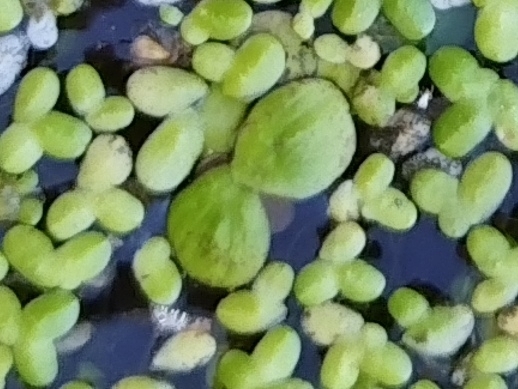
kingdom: Plantae
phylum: Tracheophyta
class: Liliopsida
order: Alismatales
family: Araceae
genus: Spirodela
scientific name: Spirodela polyrhiza
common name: Great duckweed
